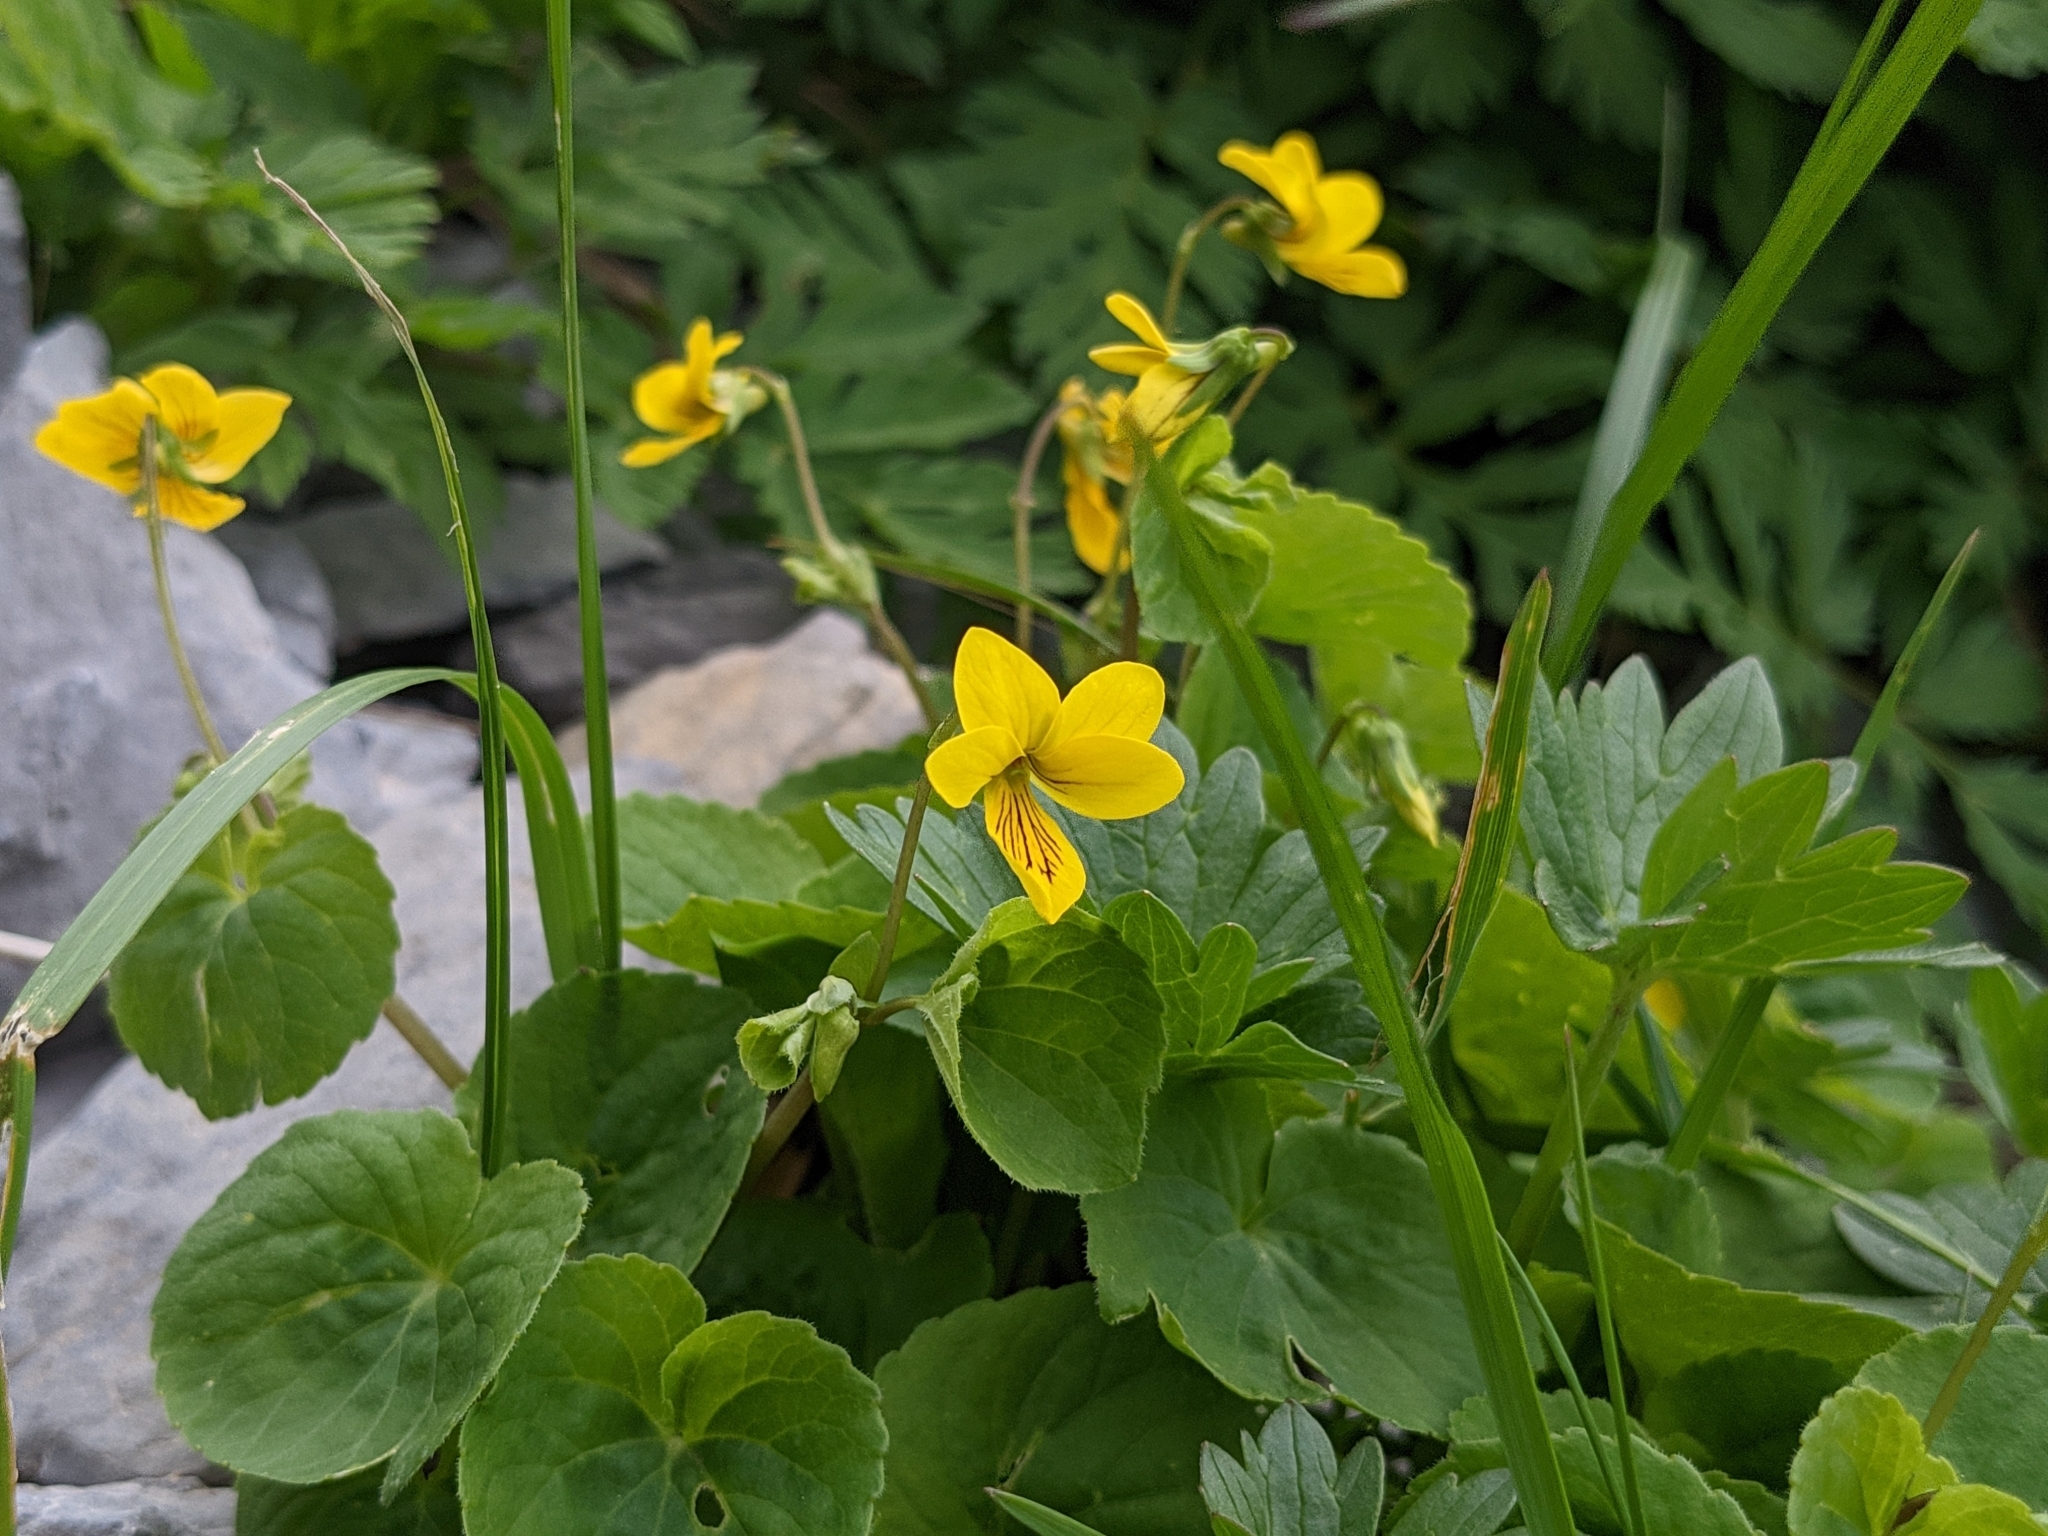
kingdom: Plantae
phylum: Tracheophyta
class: Magnoliopsida
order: Malpighiales
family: Violaceae
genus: Viola
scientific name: Viola biflora
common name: Alpine yellow violet
